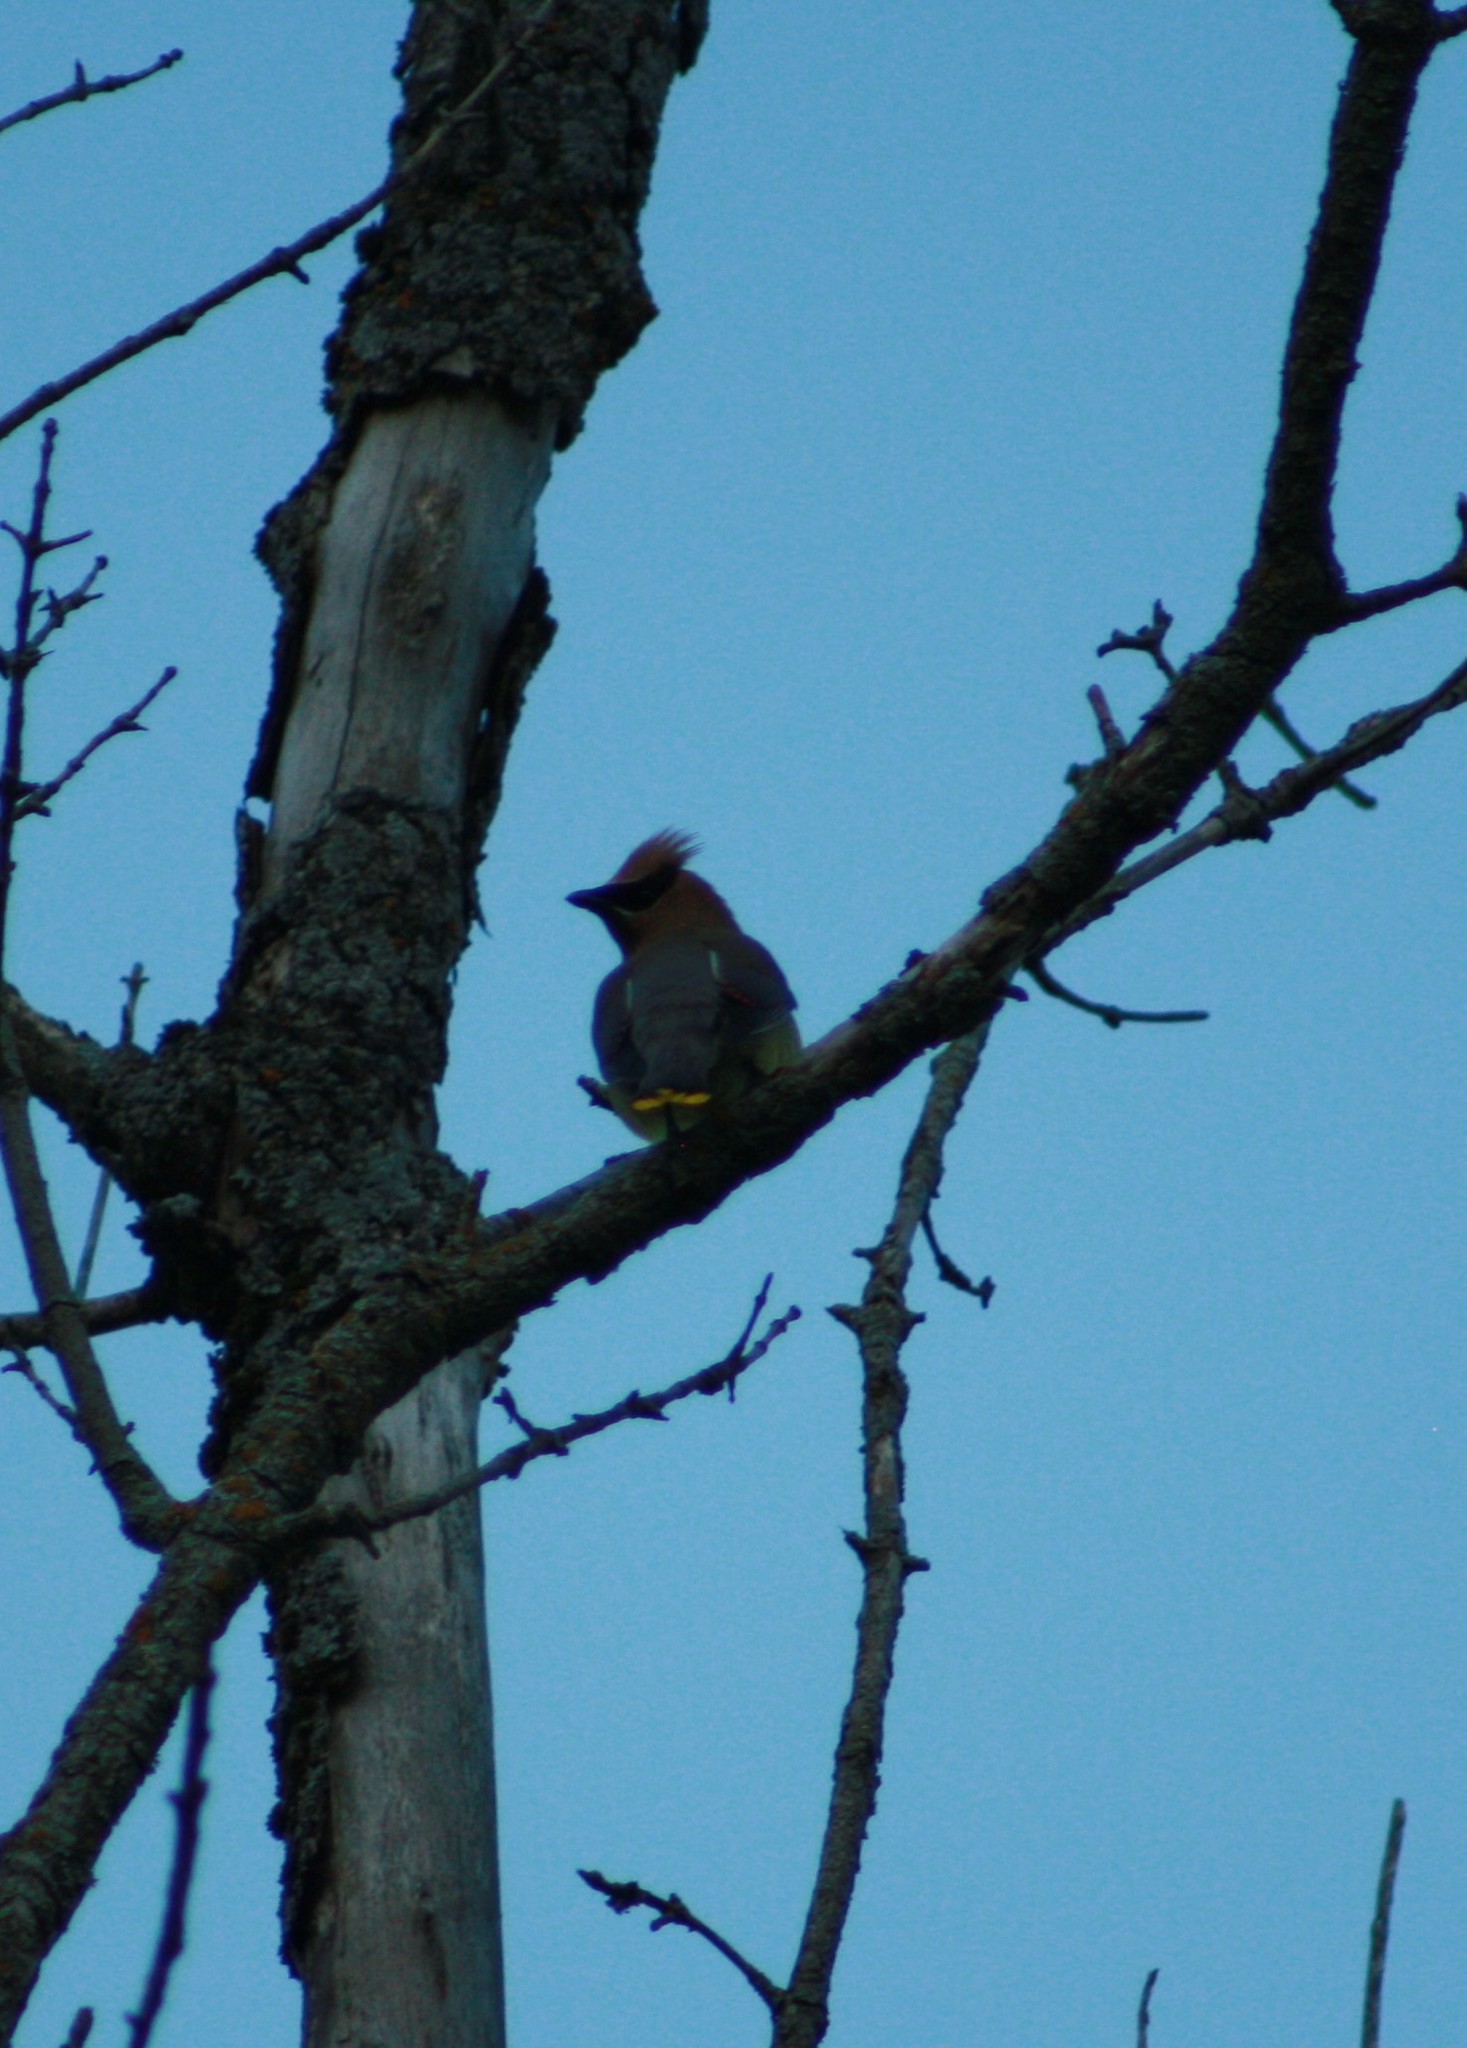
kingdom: Animalia
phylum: Chordata
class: Aves
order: Passeriformes
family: Bombycillidae
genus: Bombycilla
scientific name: Bombycilla cedrorum
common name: Cedar waxwing
